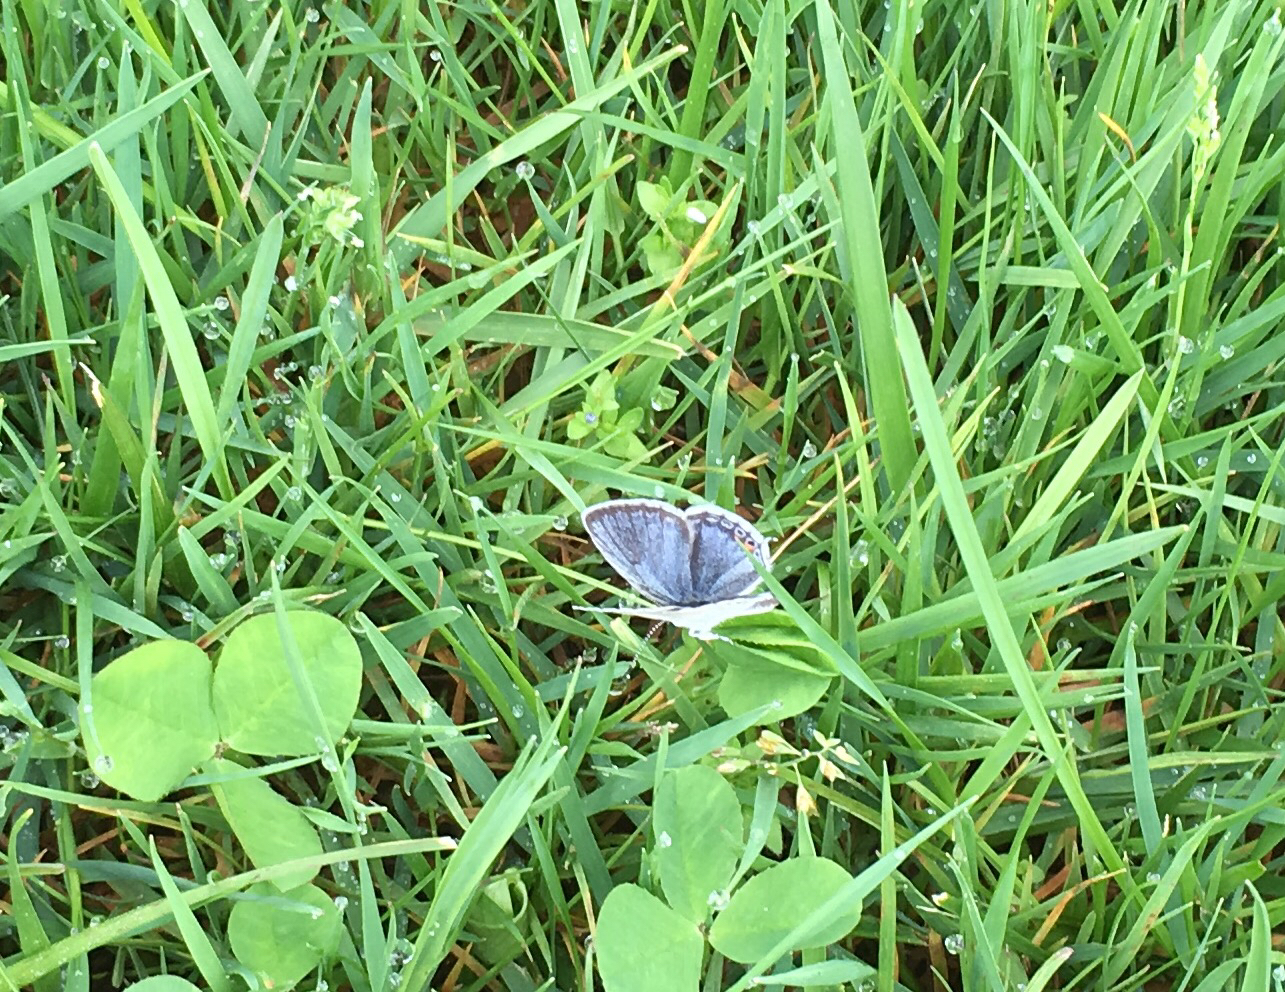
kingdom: Animalia
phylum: Arthropoda
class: Insecta
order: Lepidoptera
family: Lycaenidae
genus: Elkalyce
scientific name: Elkalyce comyntas
